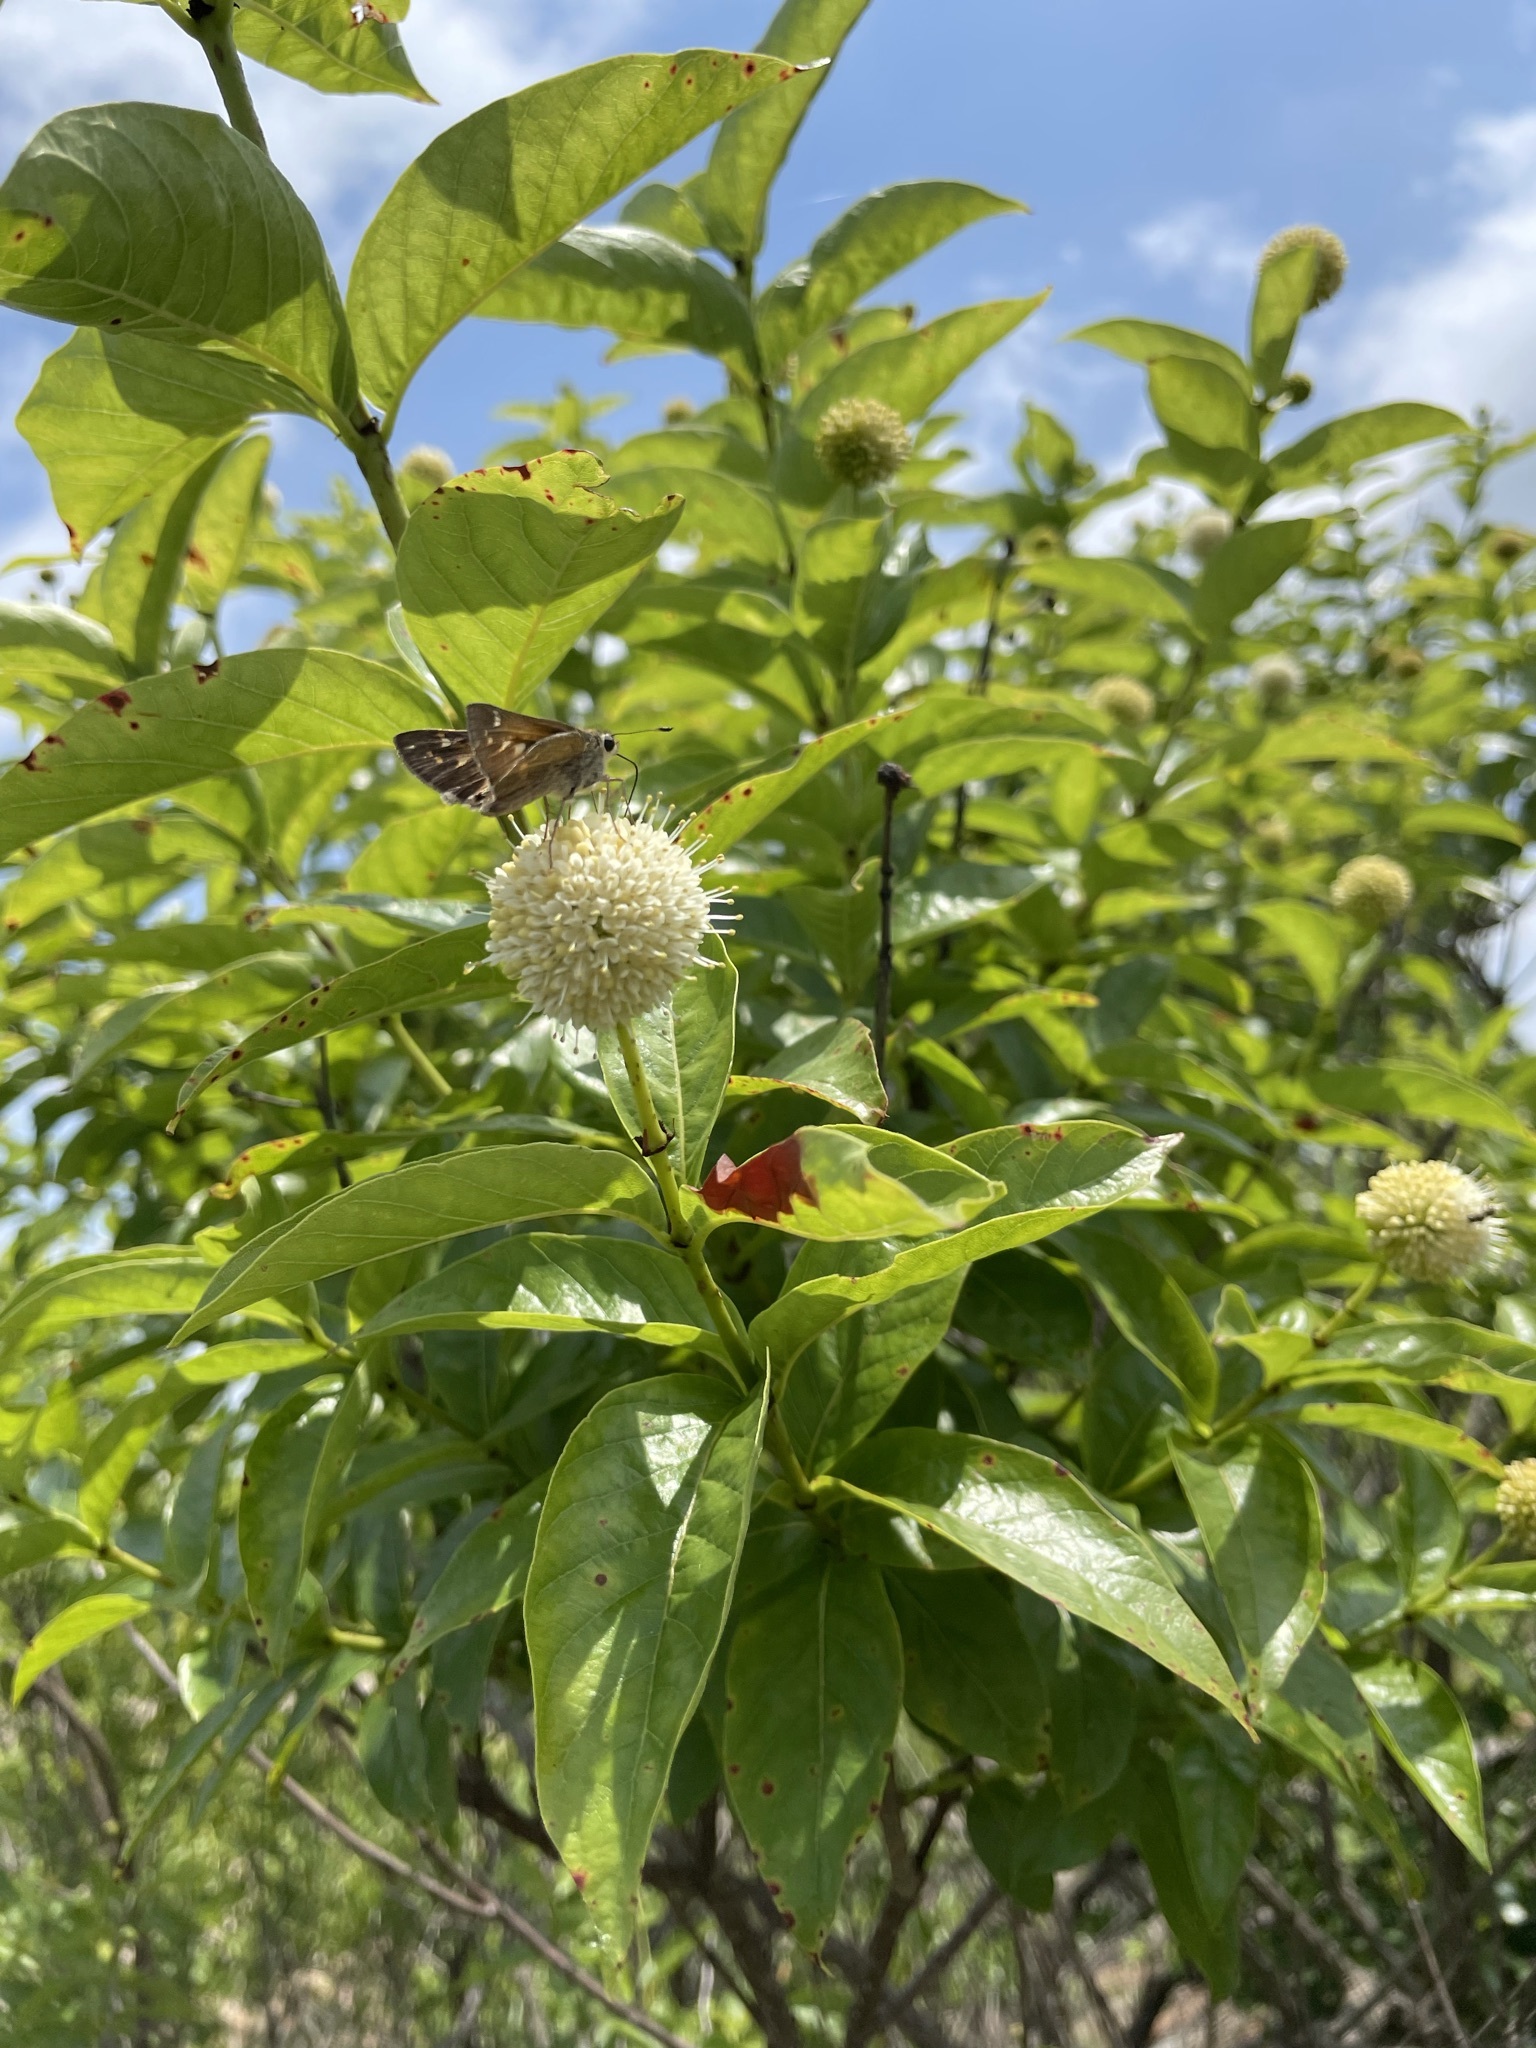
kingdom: Animalia
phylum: Arthropoda
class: Insecta
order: Lepidoptera
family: Hesperiidae
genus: Atalopedes
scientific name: Atalopedes
